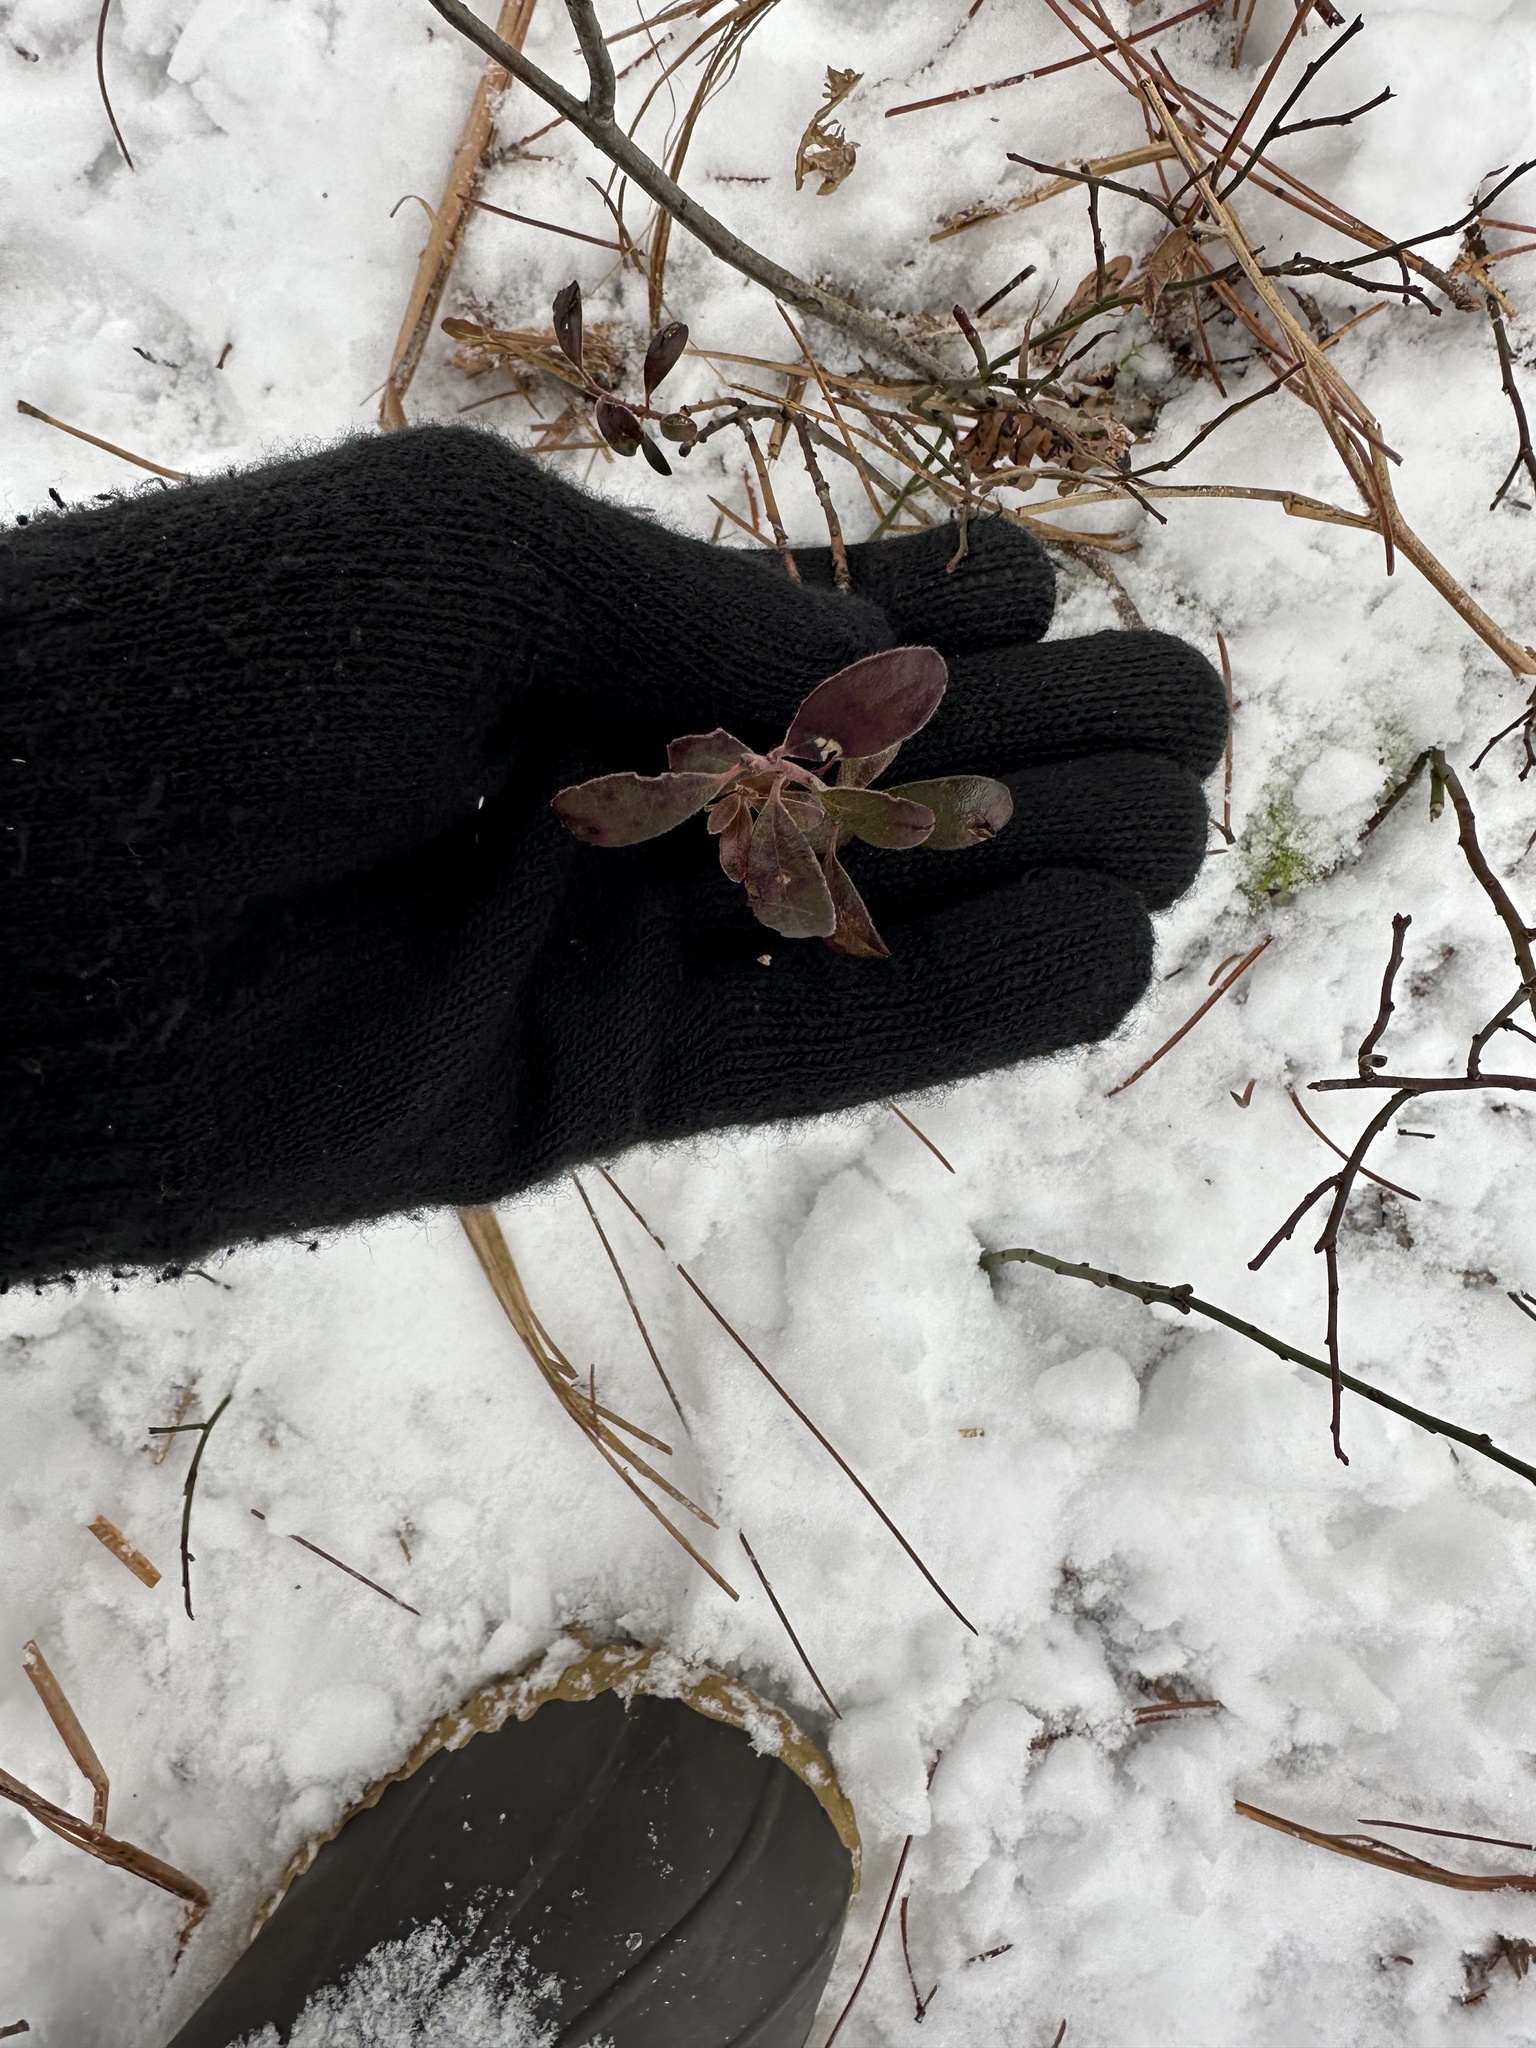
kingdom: Plantae
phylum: Tracheophyta
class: Magnoliopsida
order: Ericales
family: Ericaceae
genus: Arctostaphylos
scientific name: Arctostaphylos uva-ursi
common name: Bearberry
